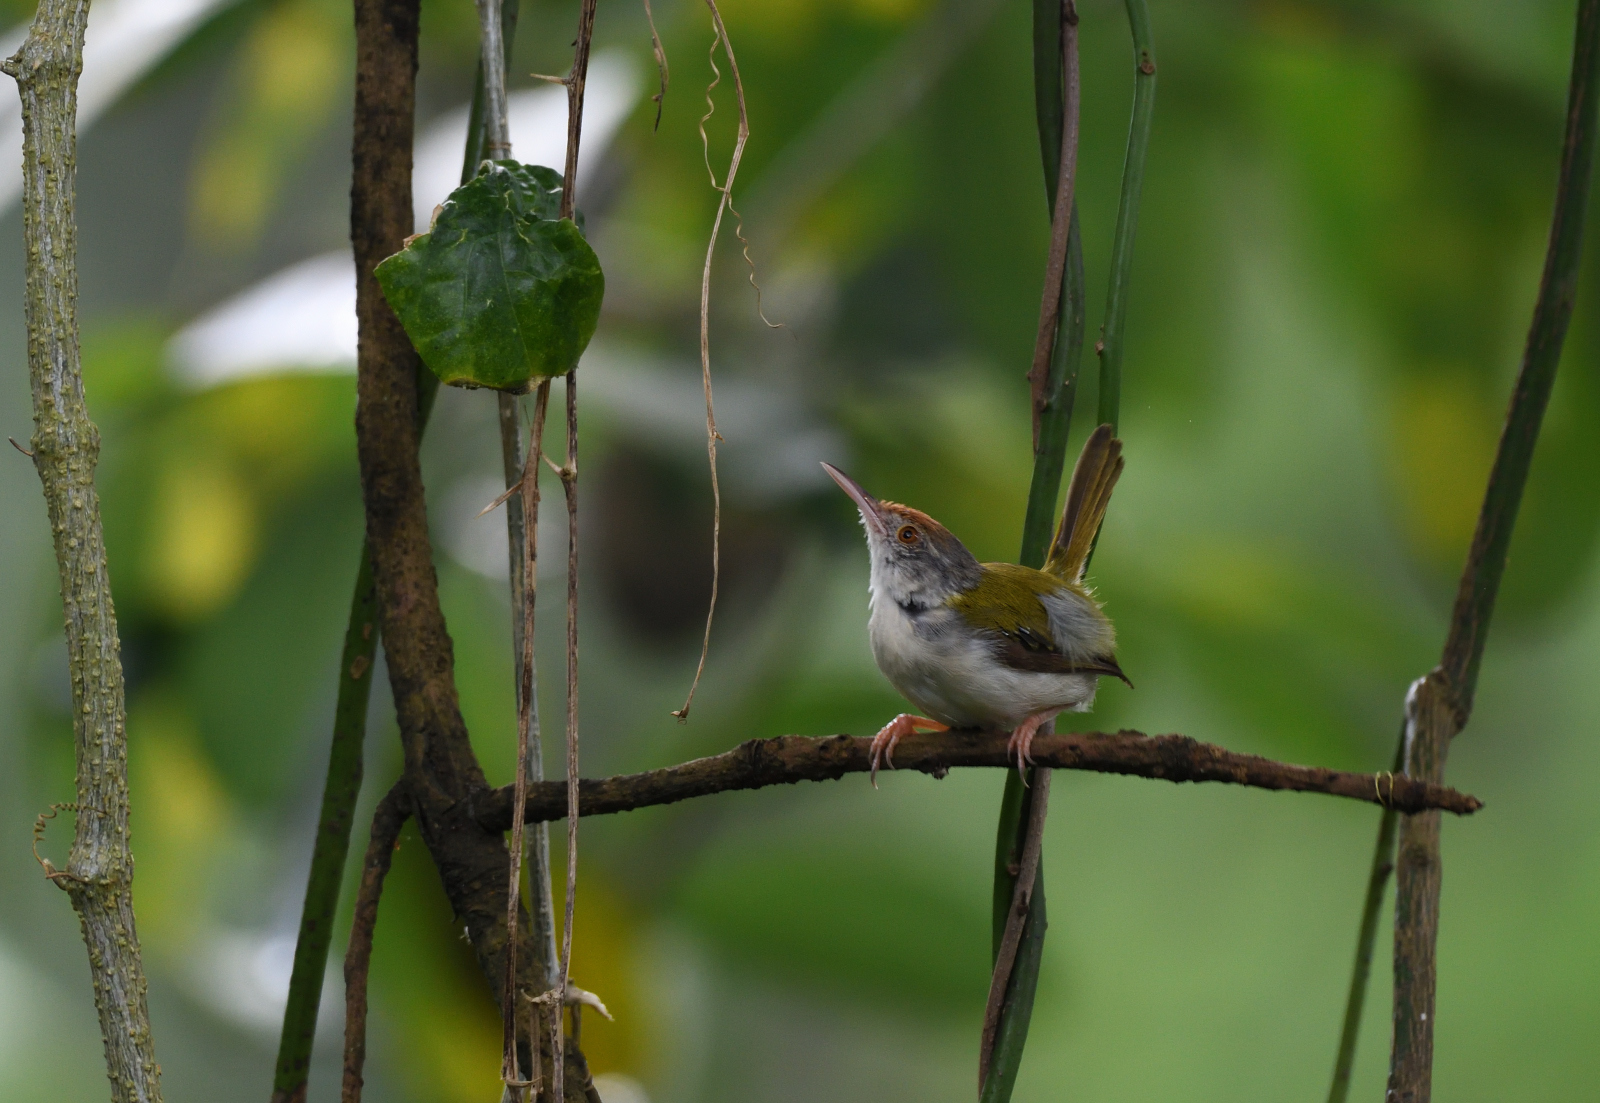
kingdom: Animalia
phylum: Chordata
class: Aves
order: Passeriformes
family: Cisticolidae
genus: Orthotomus
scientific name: Orthotomus sutorius
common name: Common tailorbird
